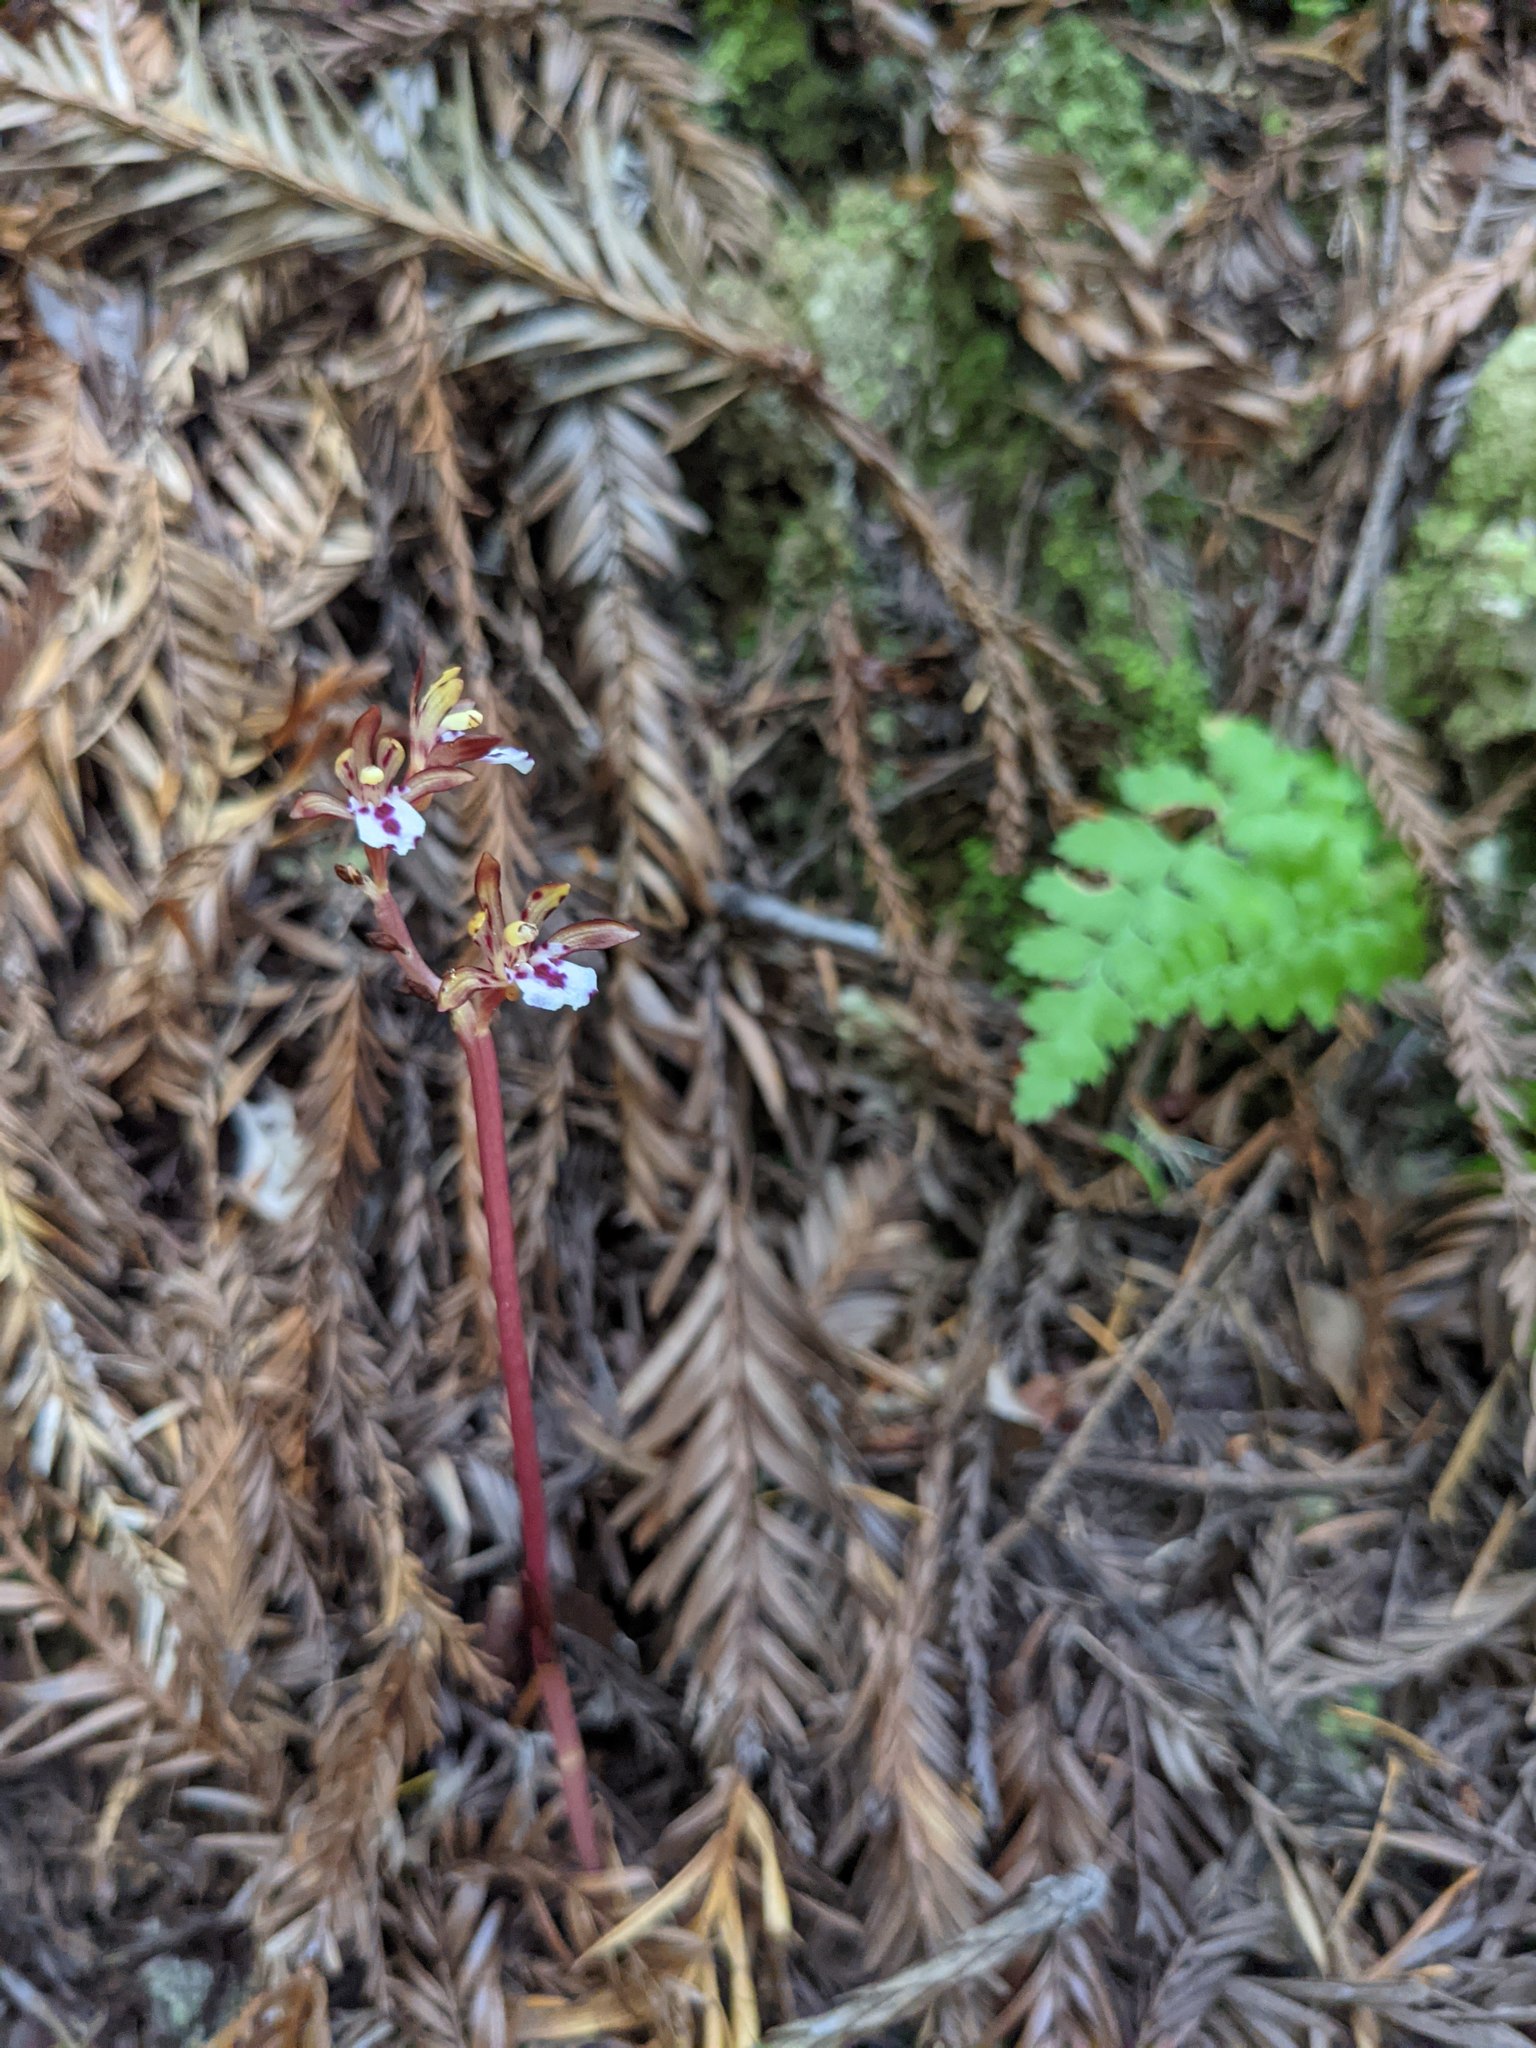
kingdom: Plantae
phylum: Tracheophyta
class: Liliopsida
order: Asparagales
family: Orchidaceae
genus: Corallorhiza
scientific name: Corallorhiza maculata
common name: Spotted coralroot
